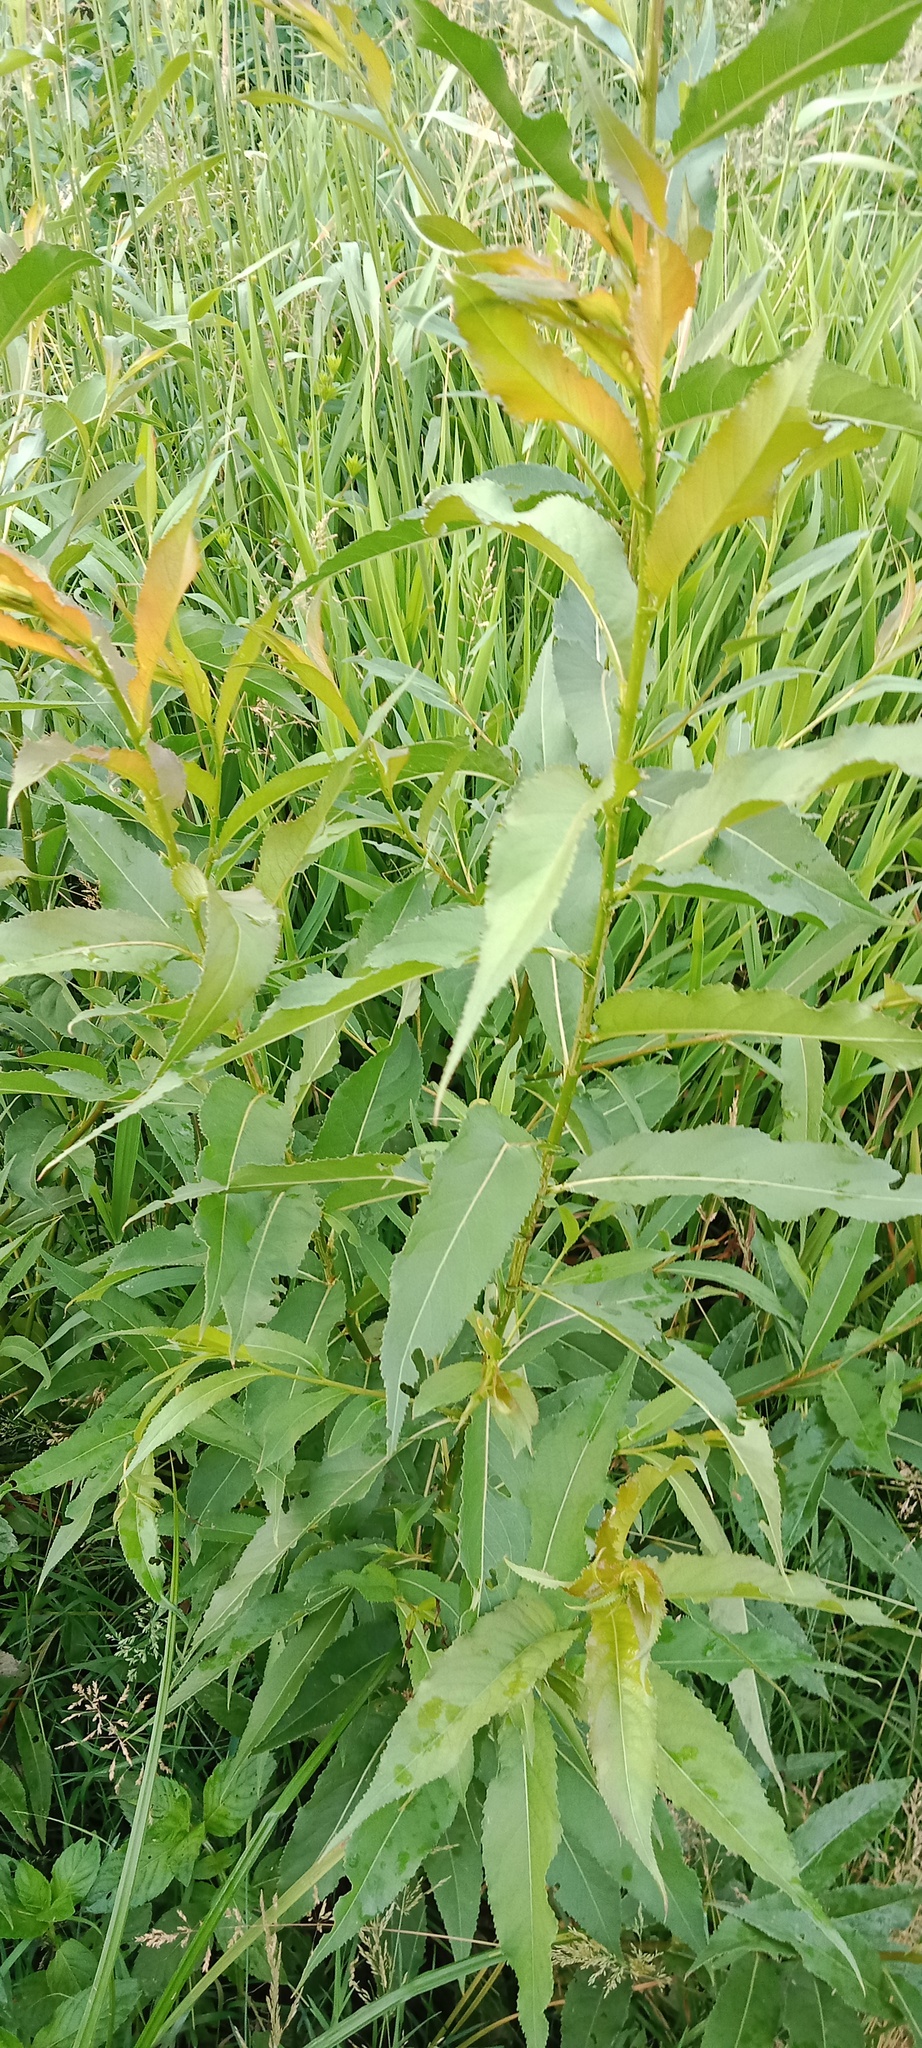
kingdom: Plantae
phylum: Tracheophyta
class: Magnoliopsida
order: Malpighiales
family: Salicaceae
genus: Salix
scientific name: Salix triandra
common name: Almond willow
